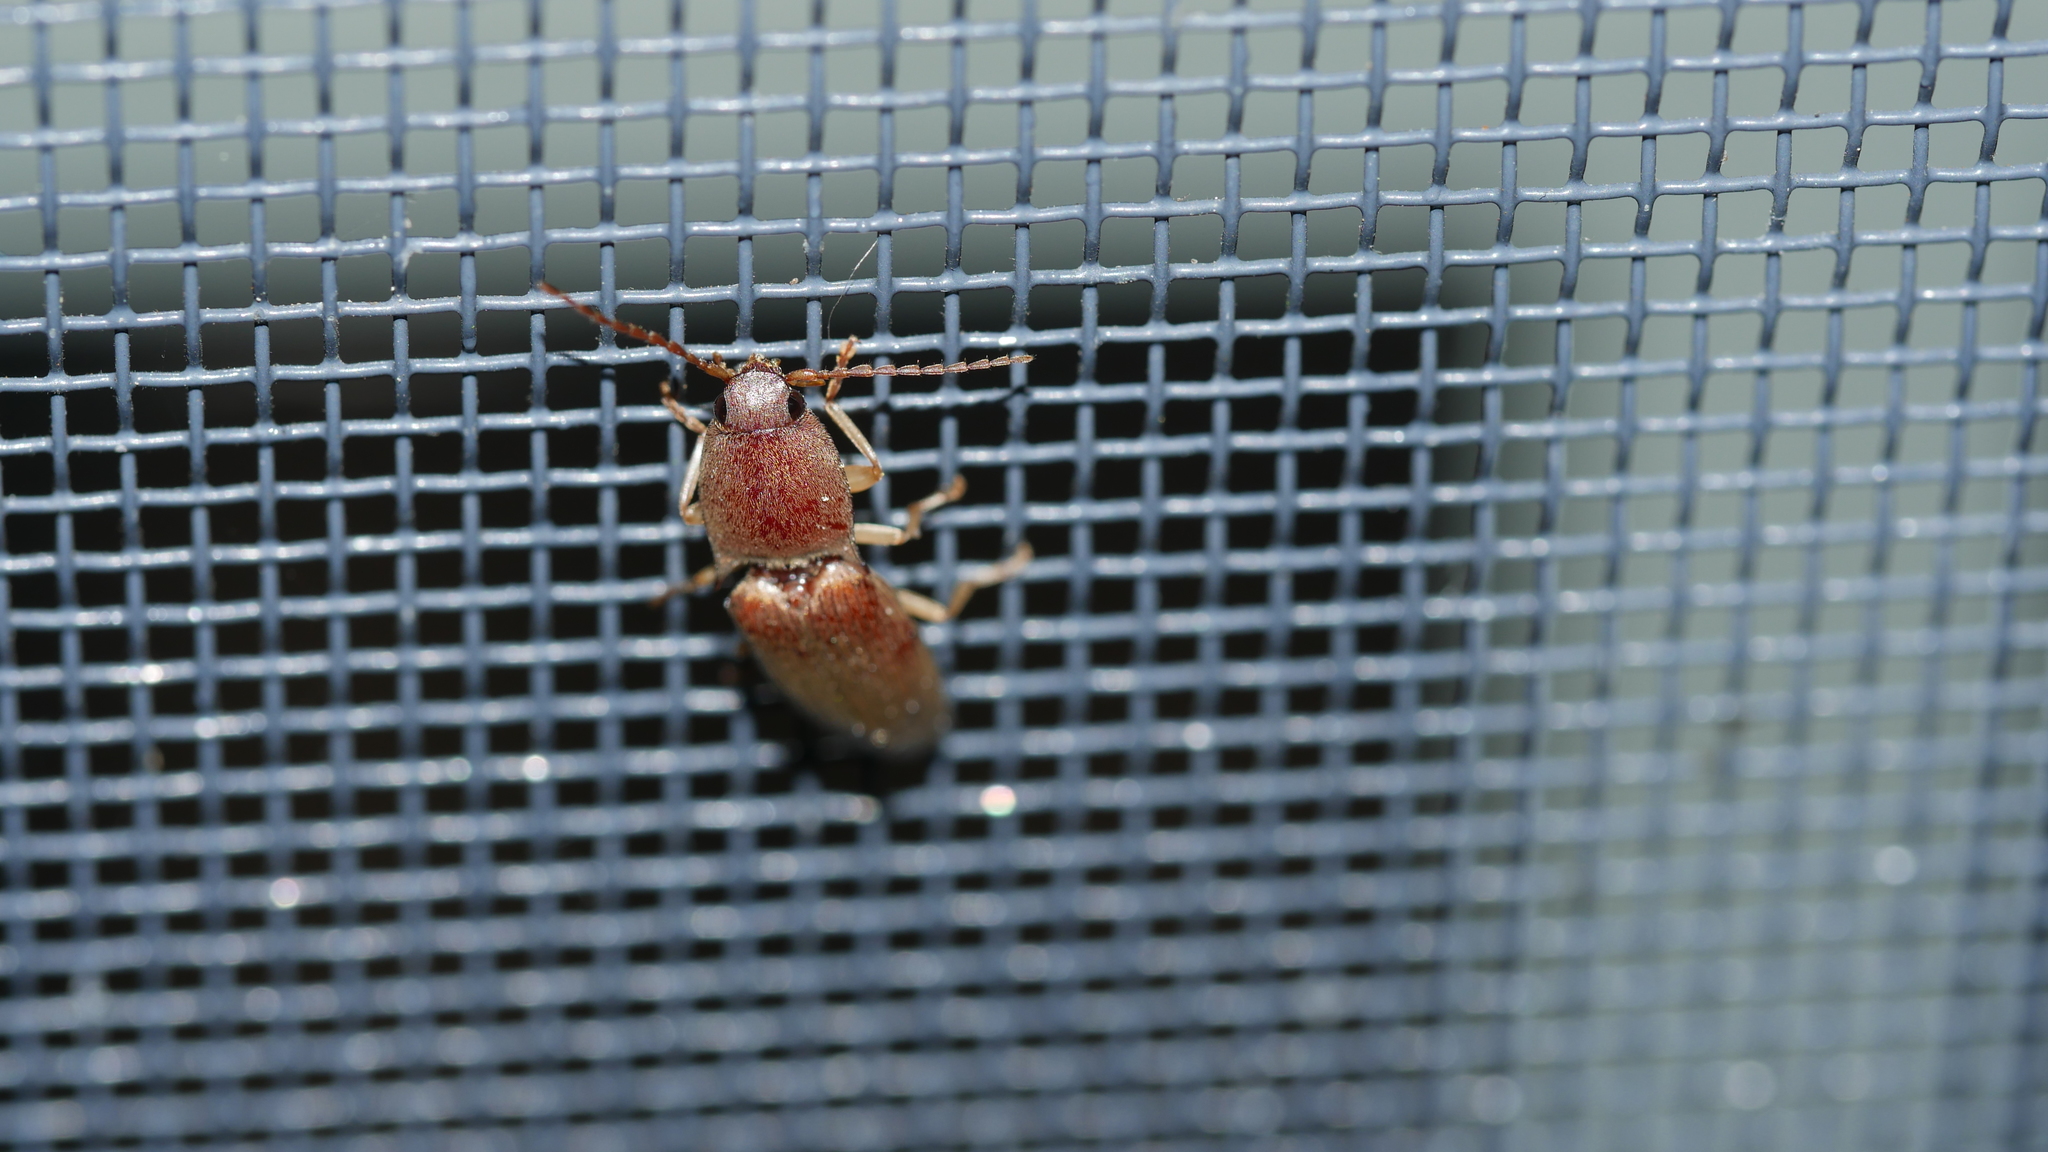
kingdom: Animalia
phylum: Arthropoda
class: Insecta
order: Coleoptera
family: Elateridae
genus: Monocrepidius
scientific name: Monocrepidius lividus
